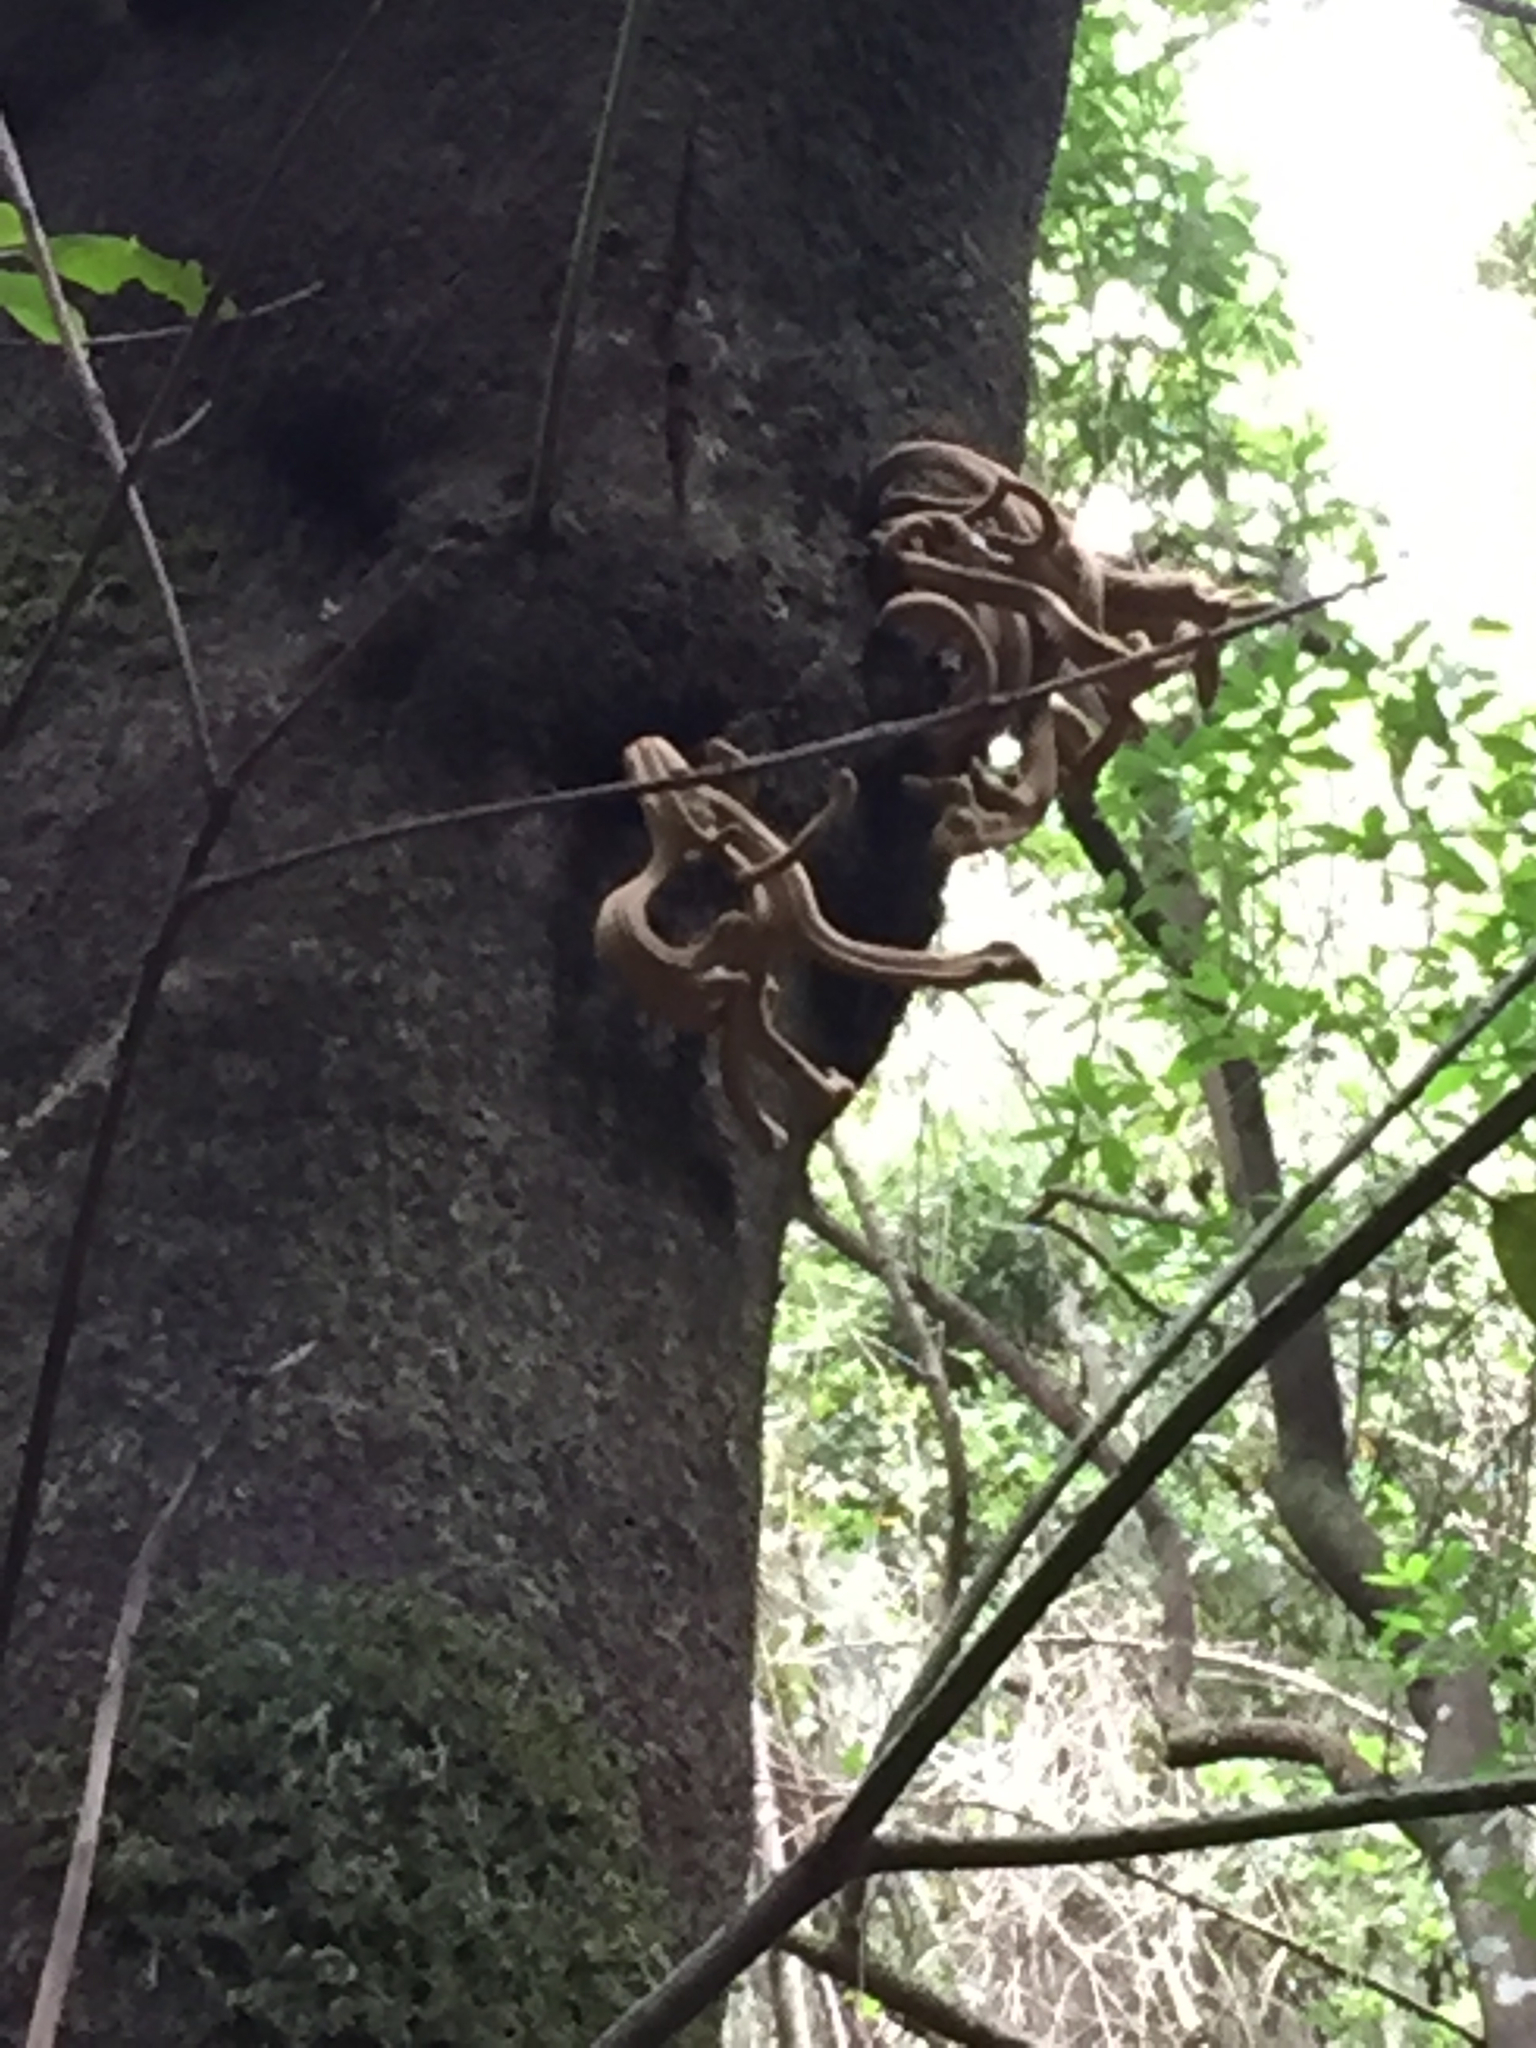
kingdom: Fungi
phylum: Basidiomycota
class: Exobasidiomycetes
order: Exobasidiales
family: Laurobasidiaceae
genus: Laurobasidium
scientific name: Laurobasidium lauri
